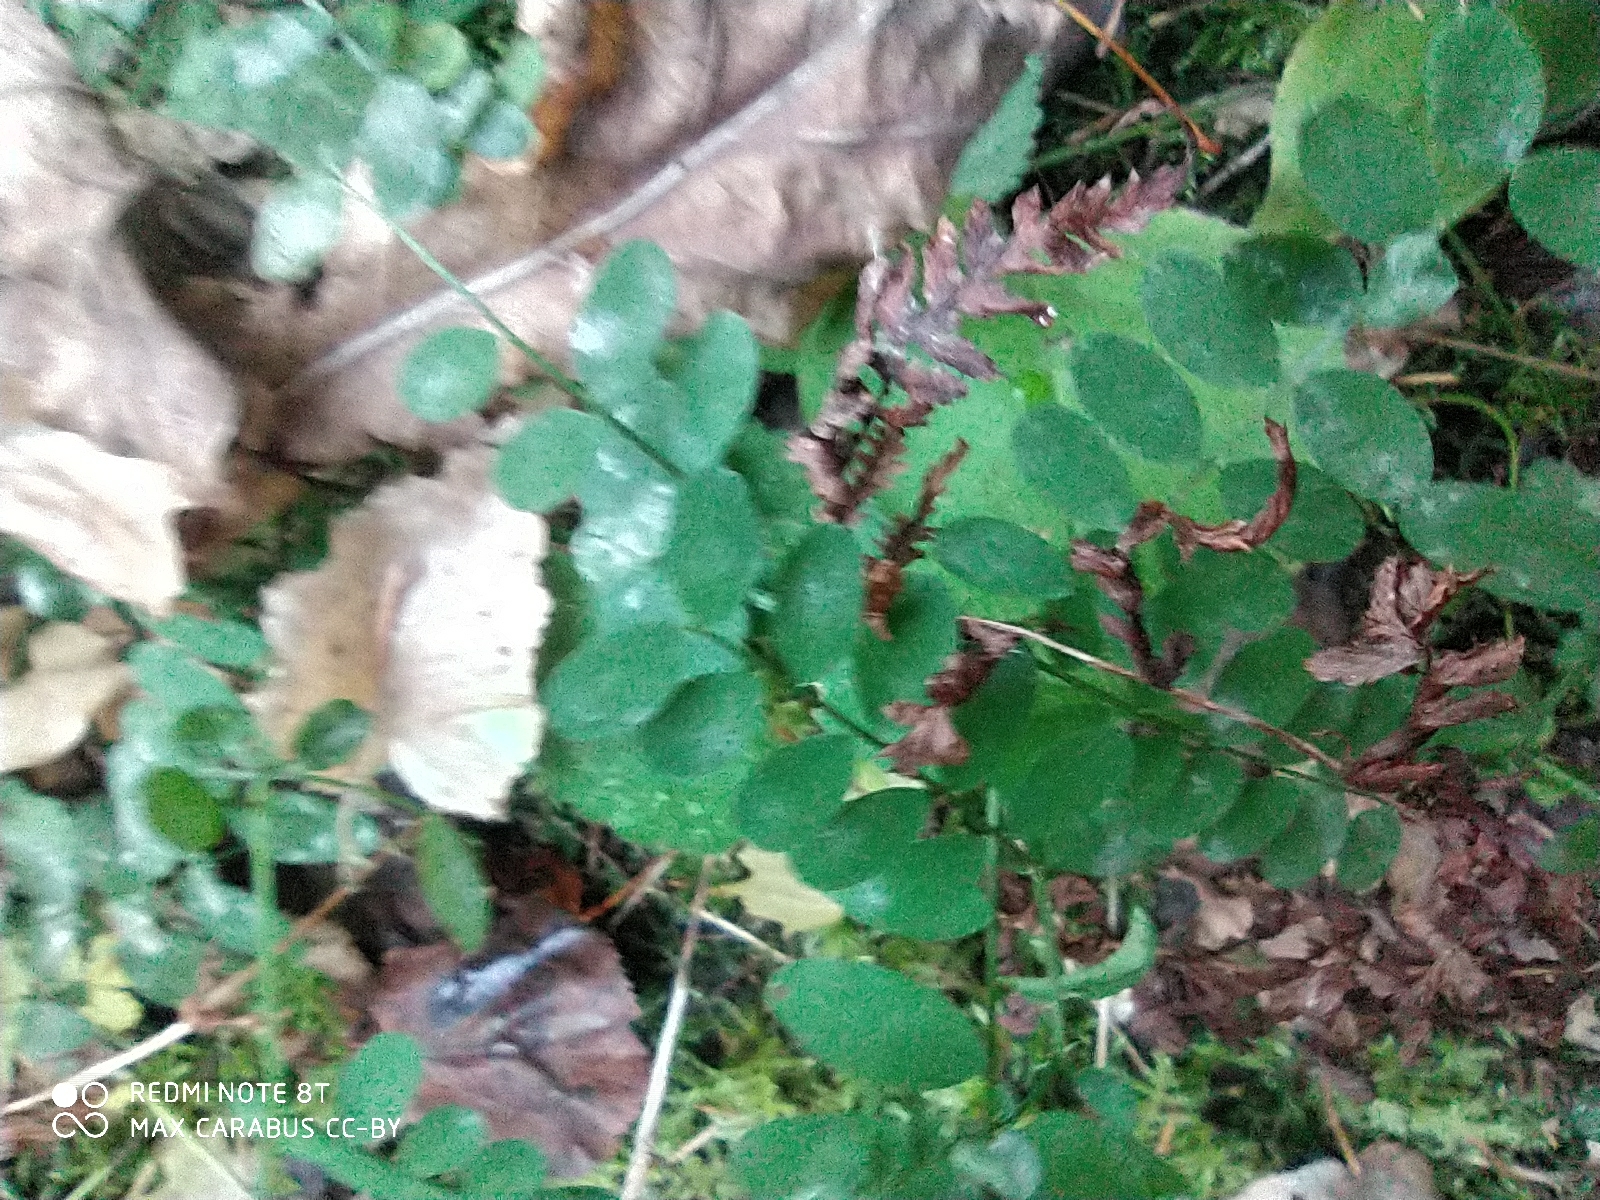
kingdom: Plantae
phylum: Tracheophyta
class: Magnoliopsida
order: Fabales
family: Fabaceae
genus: Vicia
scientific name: Vicia sylvatica
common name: Wood vetch
